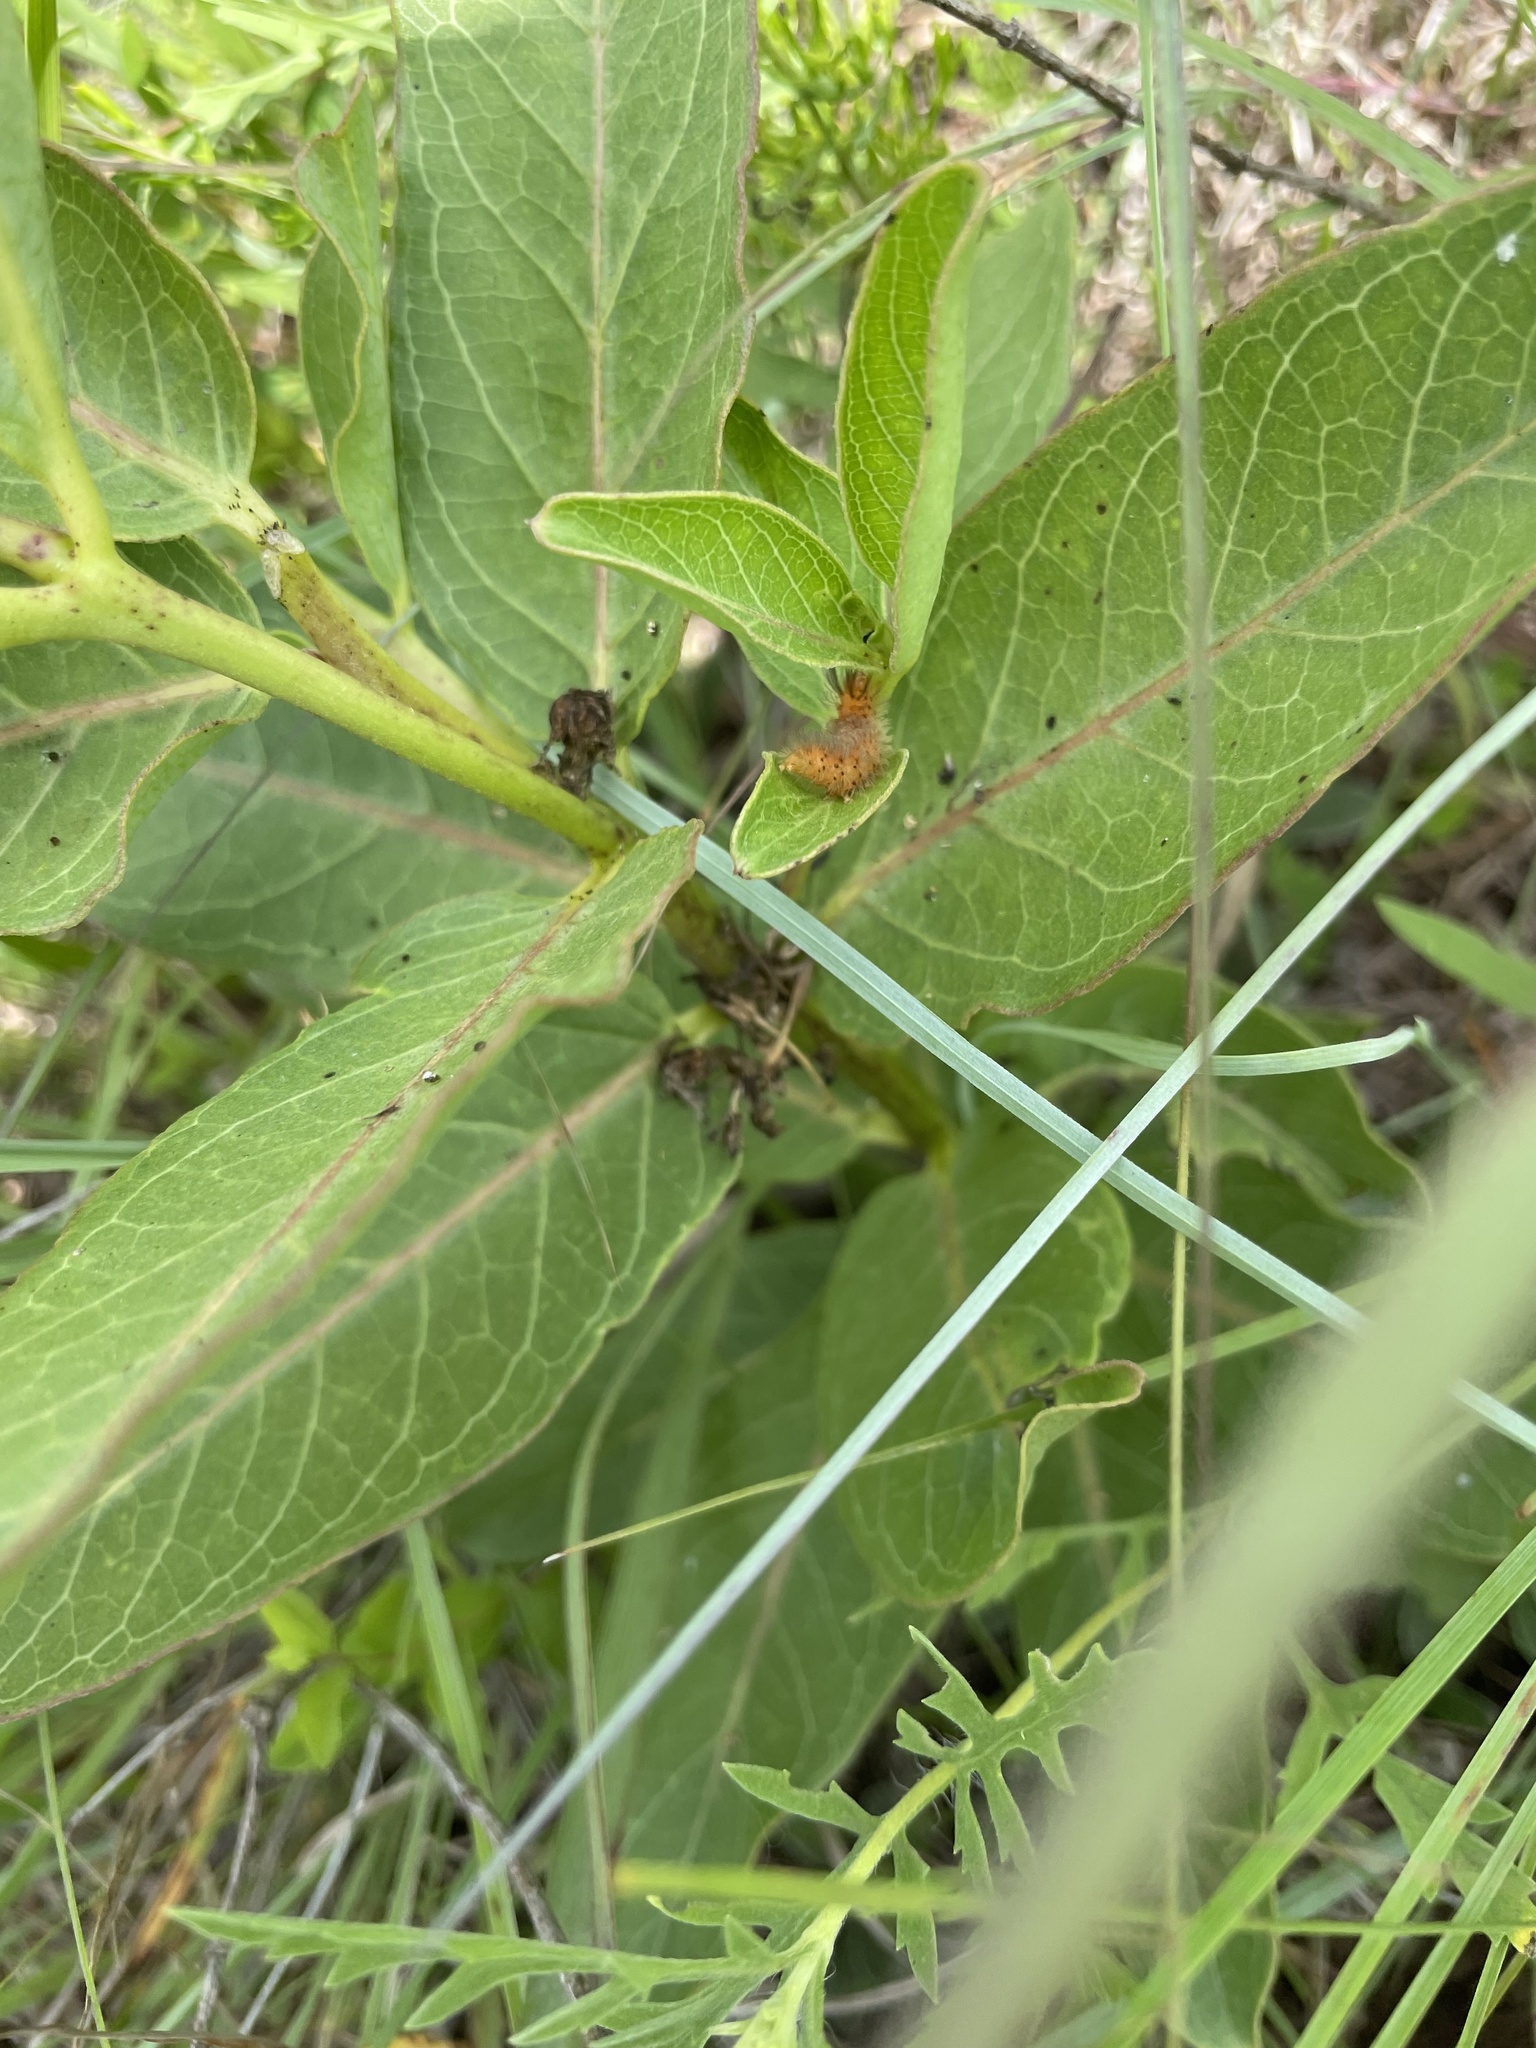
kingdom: Animalia
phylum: Arthropoda
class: Insecta
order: Lepidoptera
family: Erebidae
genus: Cycnia
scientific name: Cycnia collaris
